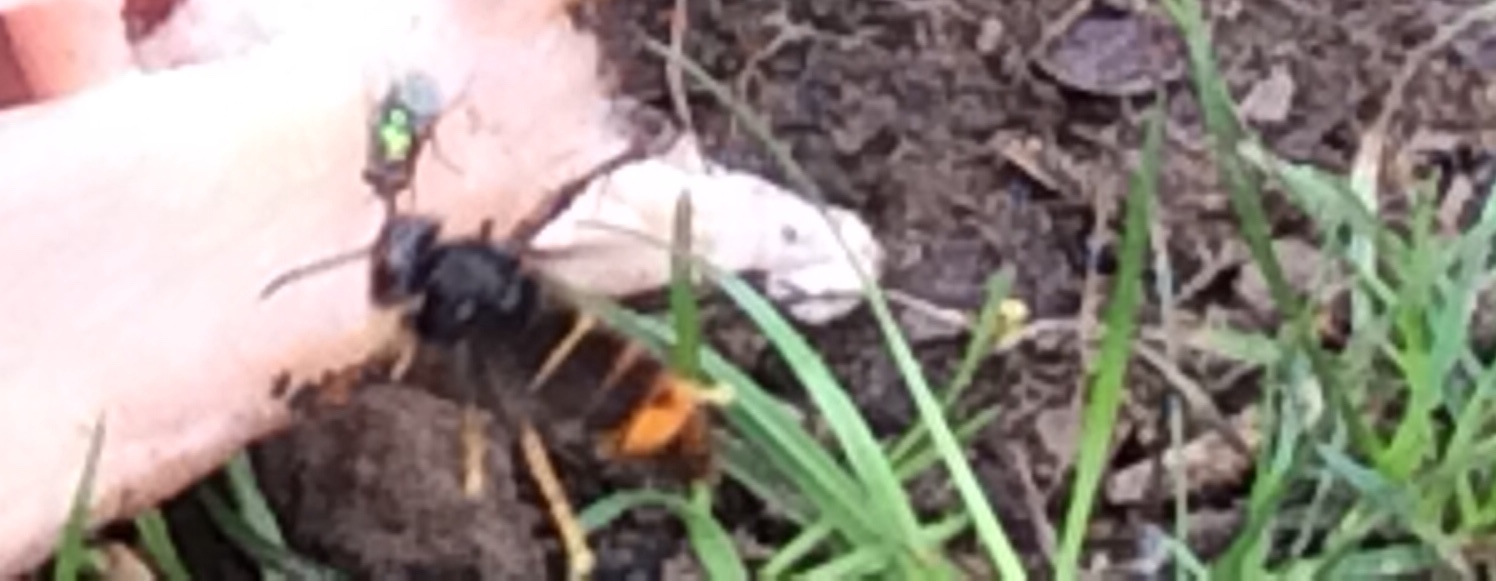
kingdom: Animalia
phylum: Arthropoda
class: Insecta
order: Hymenoptera
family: Vespidae
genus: Vespa
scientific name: Vespa velutina
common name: Asian hornet
